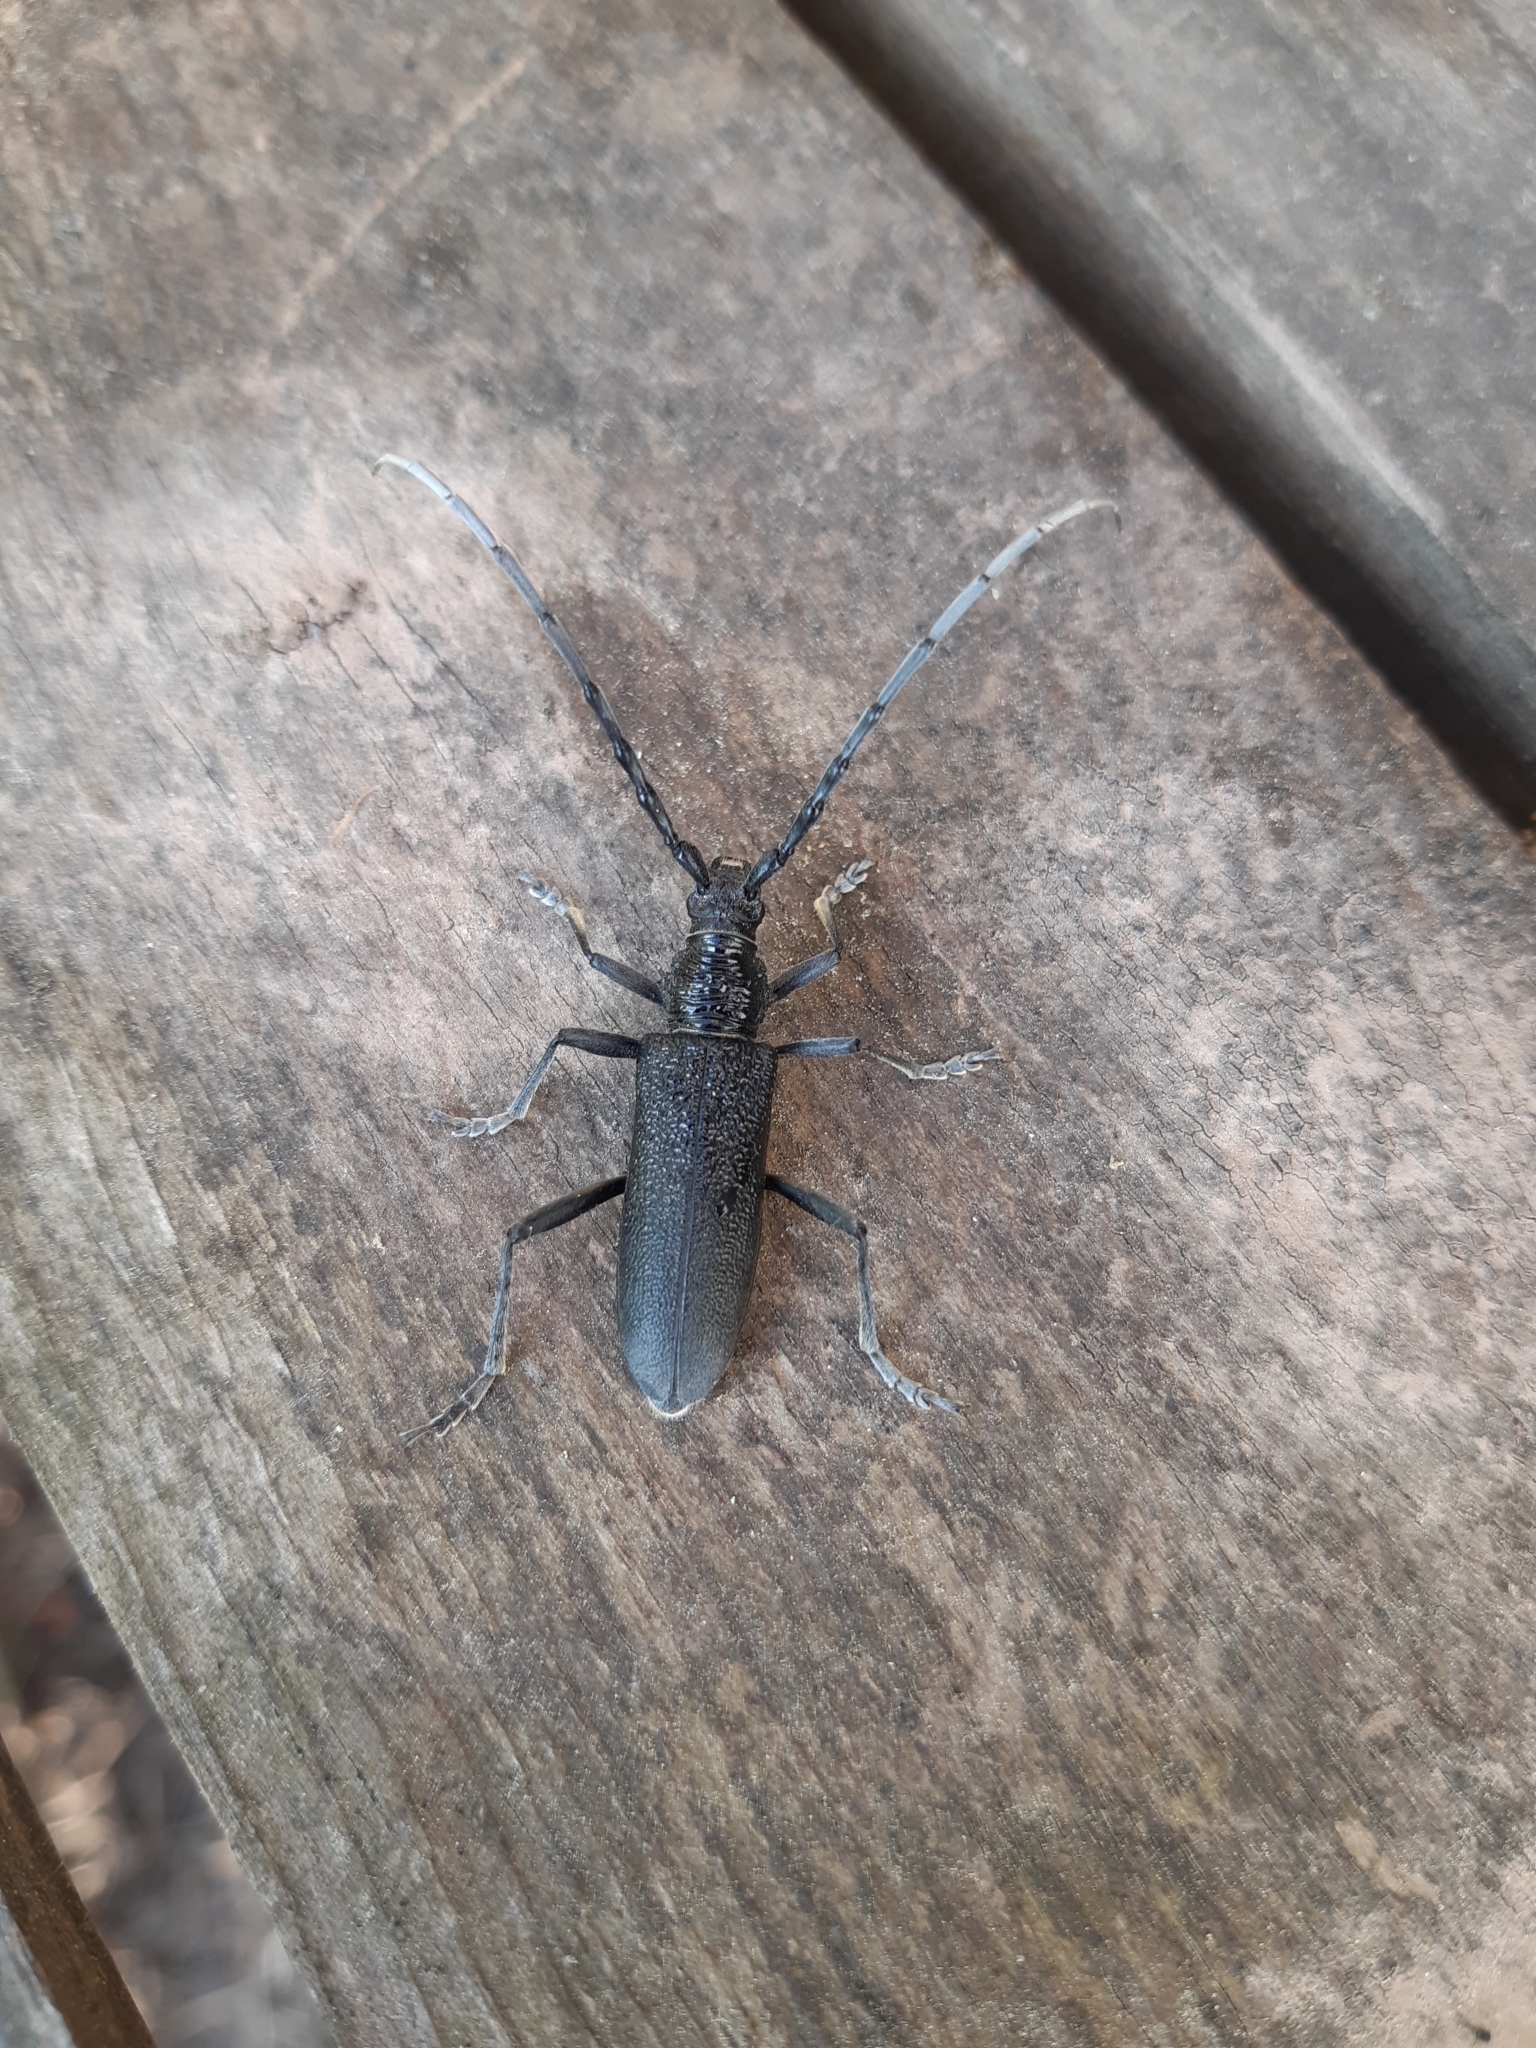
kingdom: Animalia
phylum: Arthropoda
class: Insecta
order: Coleoptera
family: Cerambycidae
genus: Cerambyx
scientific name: Cerambyx scopolii
